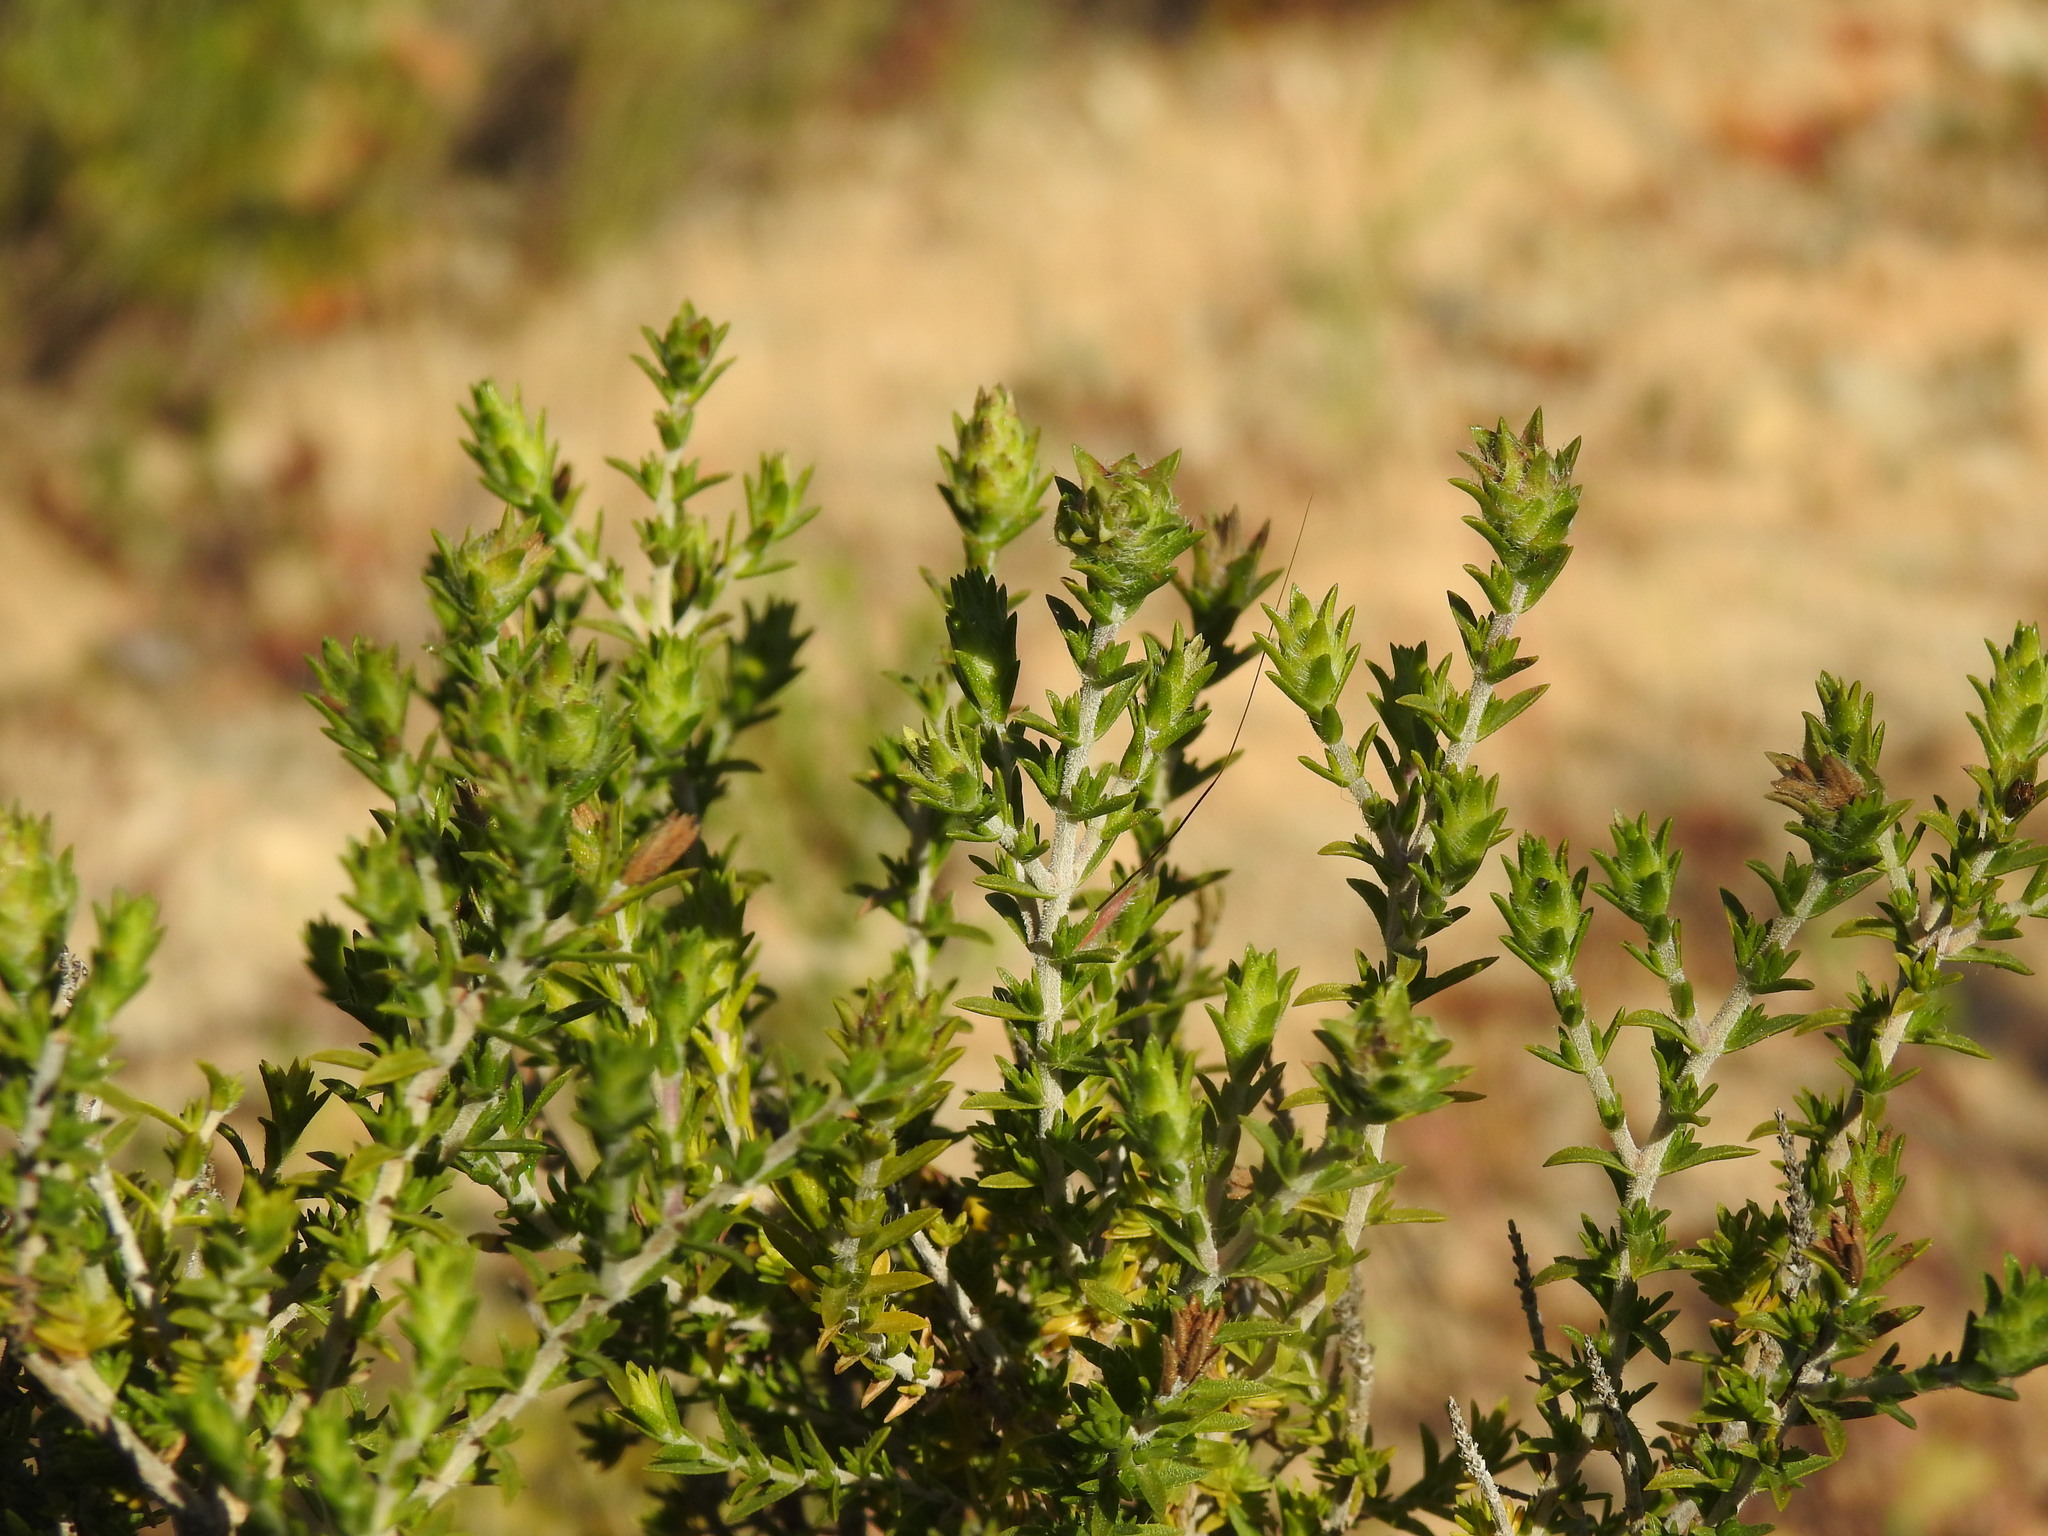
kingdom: Plantae
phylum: Tracheophyta
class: Magnoliopsida
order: Lamiales
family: Lamiaceae
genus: Thymbra
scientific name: Thymbra capitata
